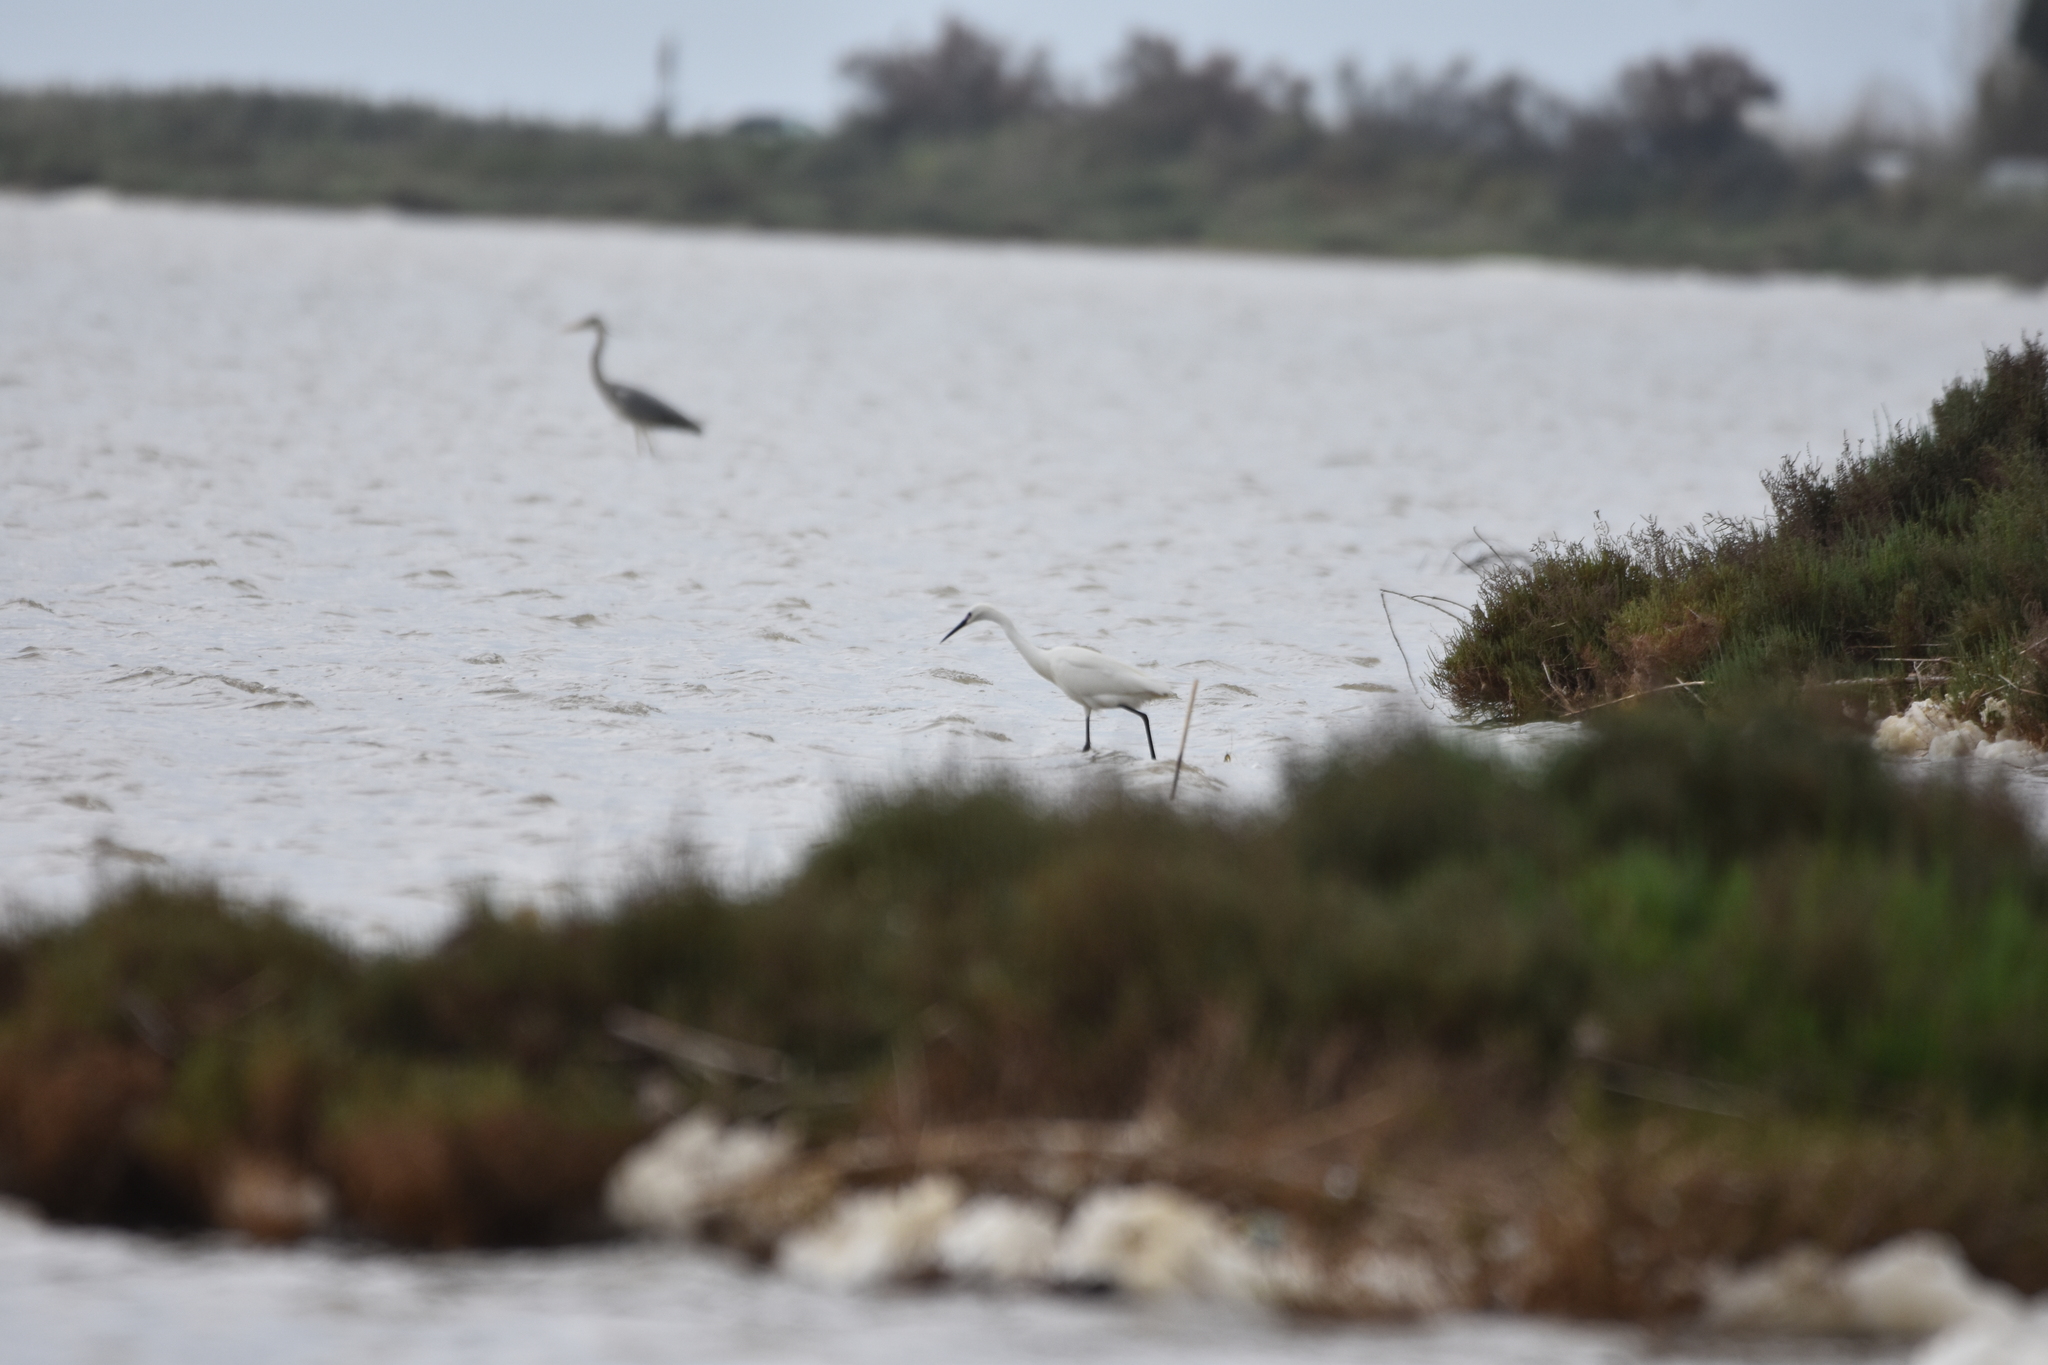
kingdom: Animalia
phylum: Chordata
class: Aves
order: Pelecaniformes
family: Ardeidae
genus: Egretta
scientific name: Egretta garzetta
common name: Little egret
